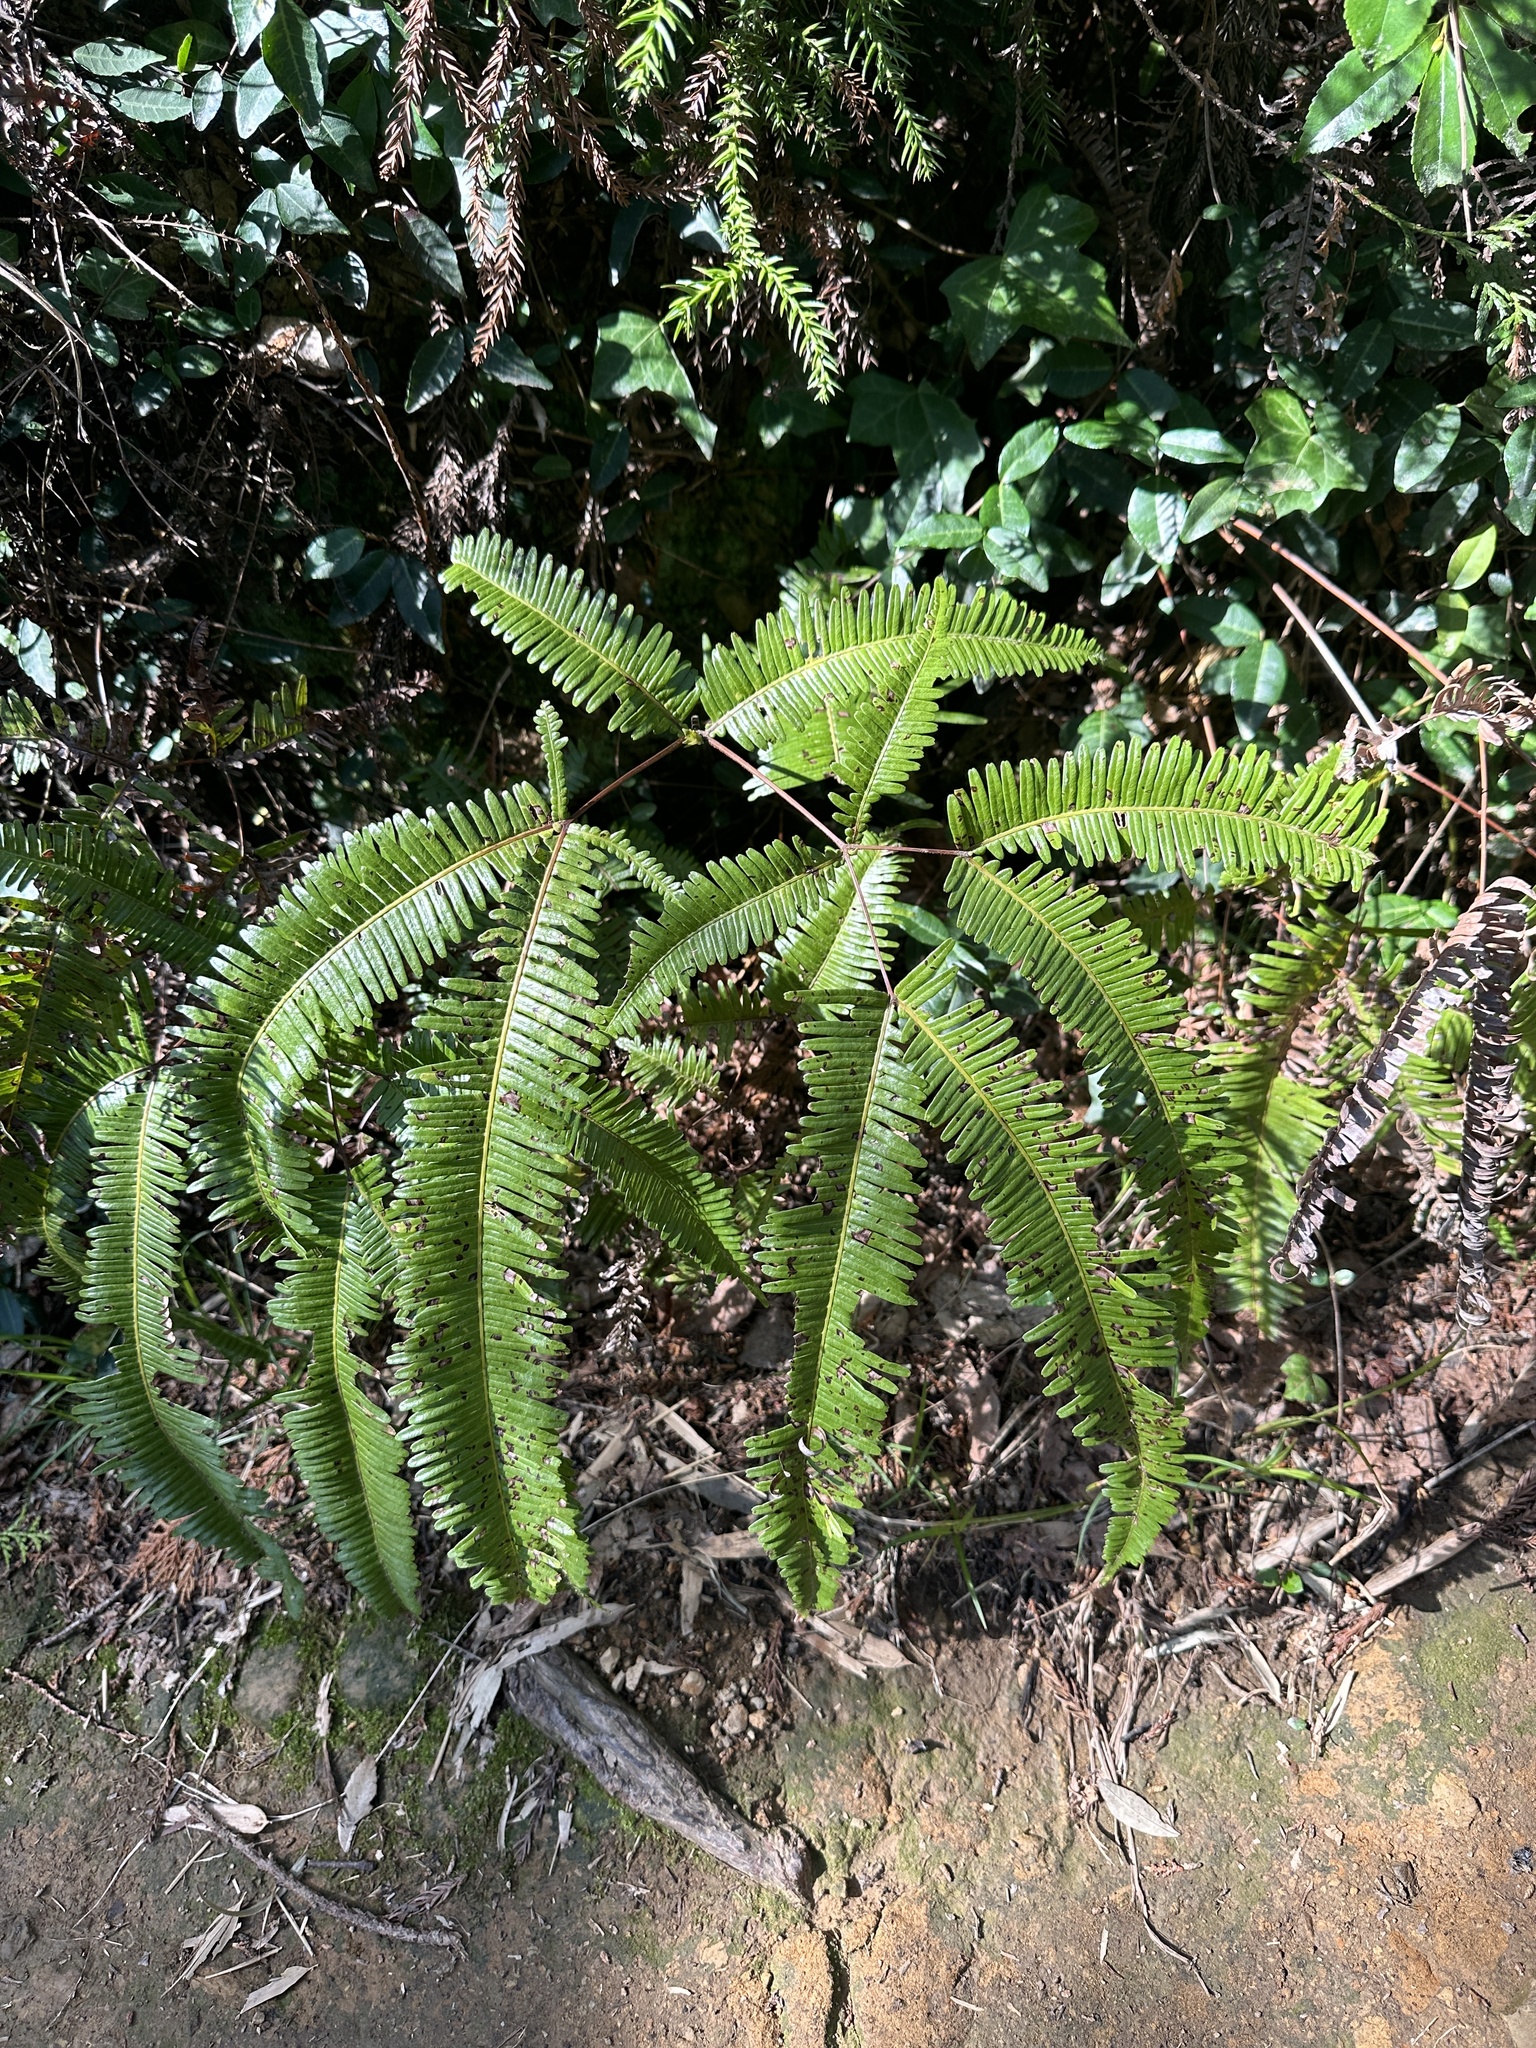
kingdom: Plantae
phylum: Tracheophyta
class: Polypodiopsida
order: Gleicheniales
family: Gleicheniaceae
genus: Dicranopteris
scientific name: Dicranopteris linearis
